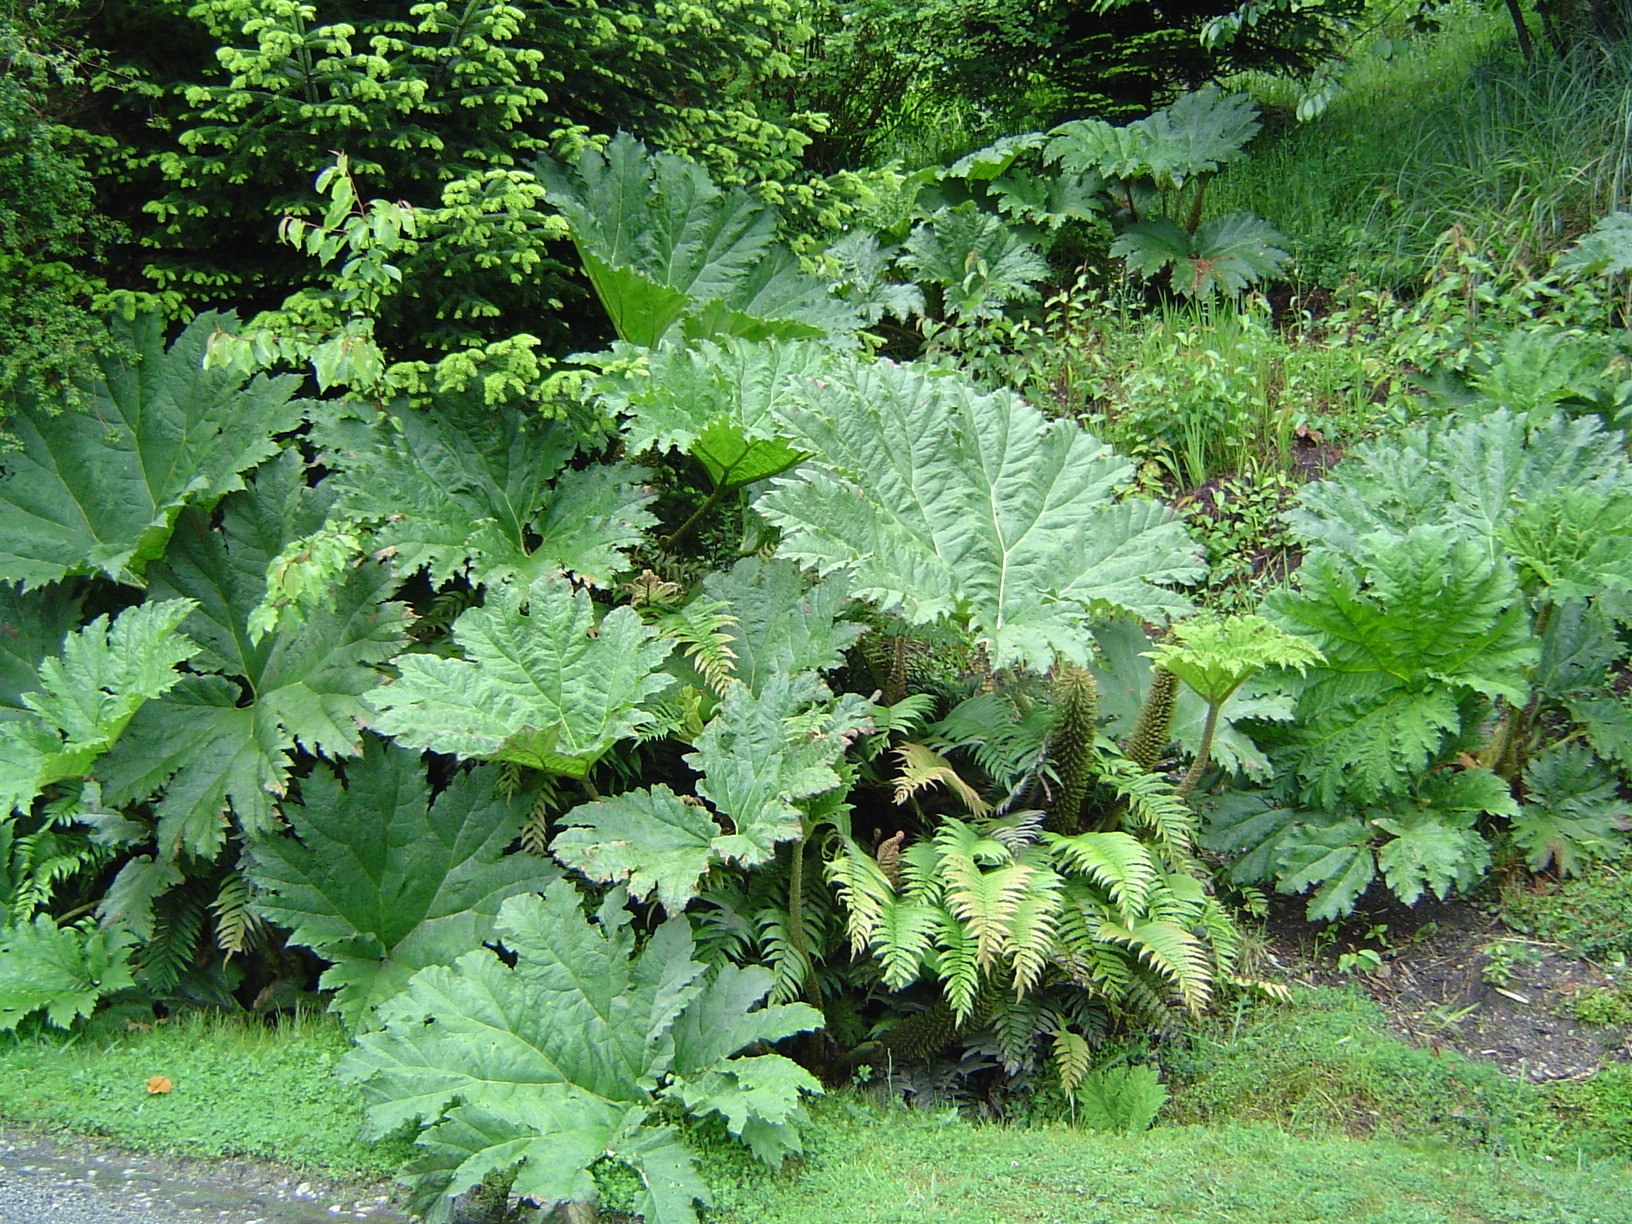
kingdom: Plantae
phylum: Tracheophyta
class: Magnoliopsida
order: Gunnerales
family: Gunneraceae
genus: Gunnera
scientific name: Gunnera tinctoria
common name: Giant-rhubarb
